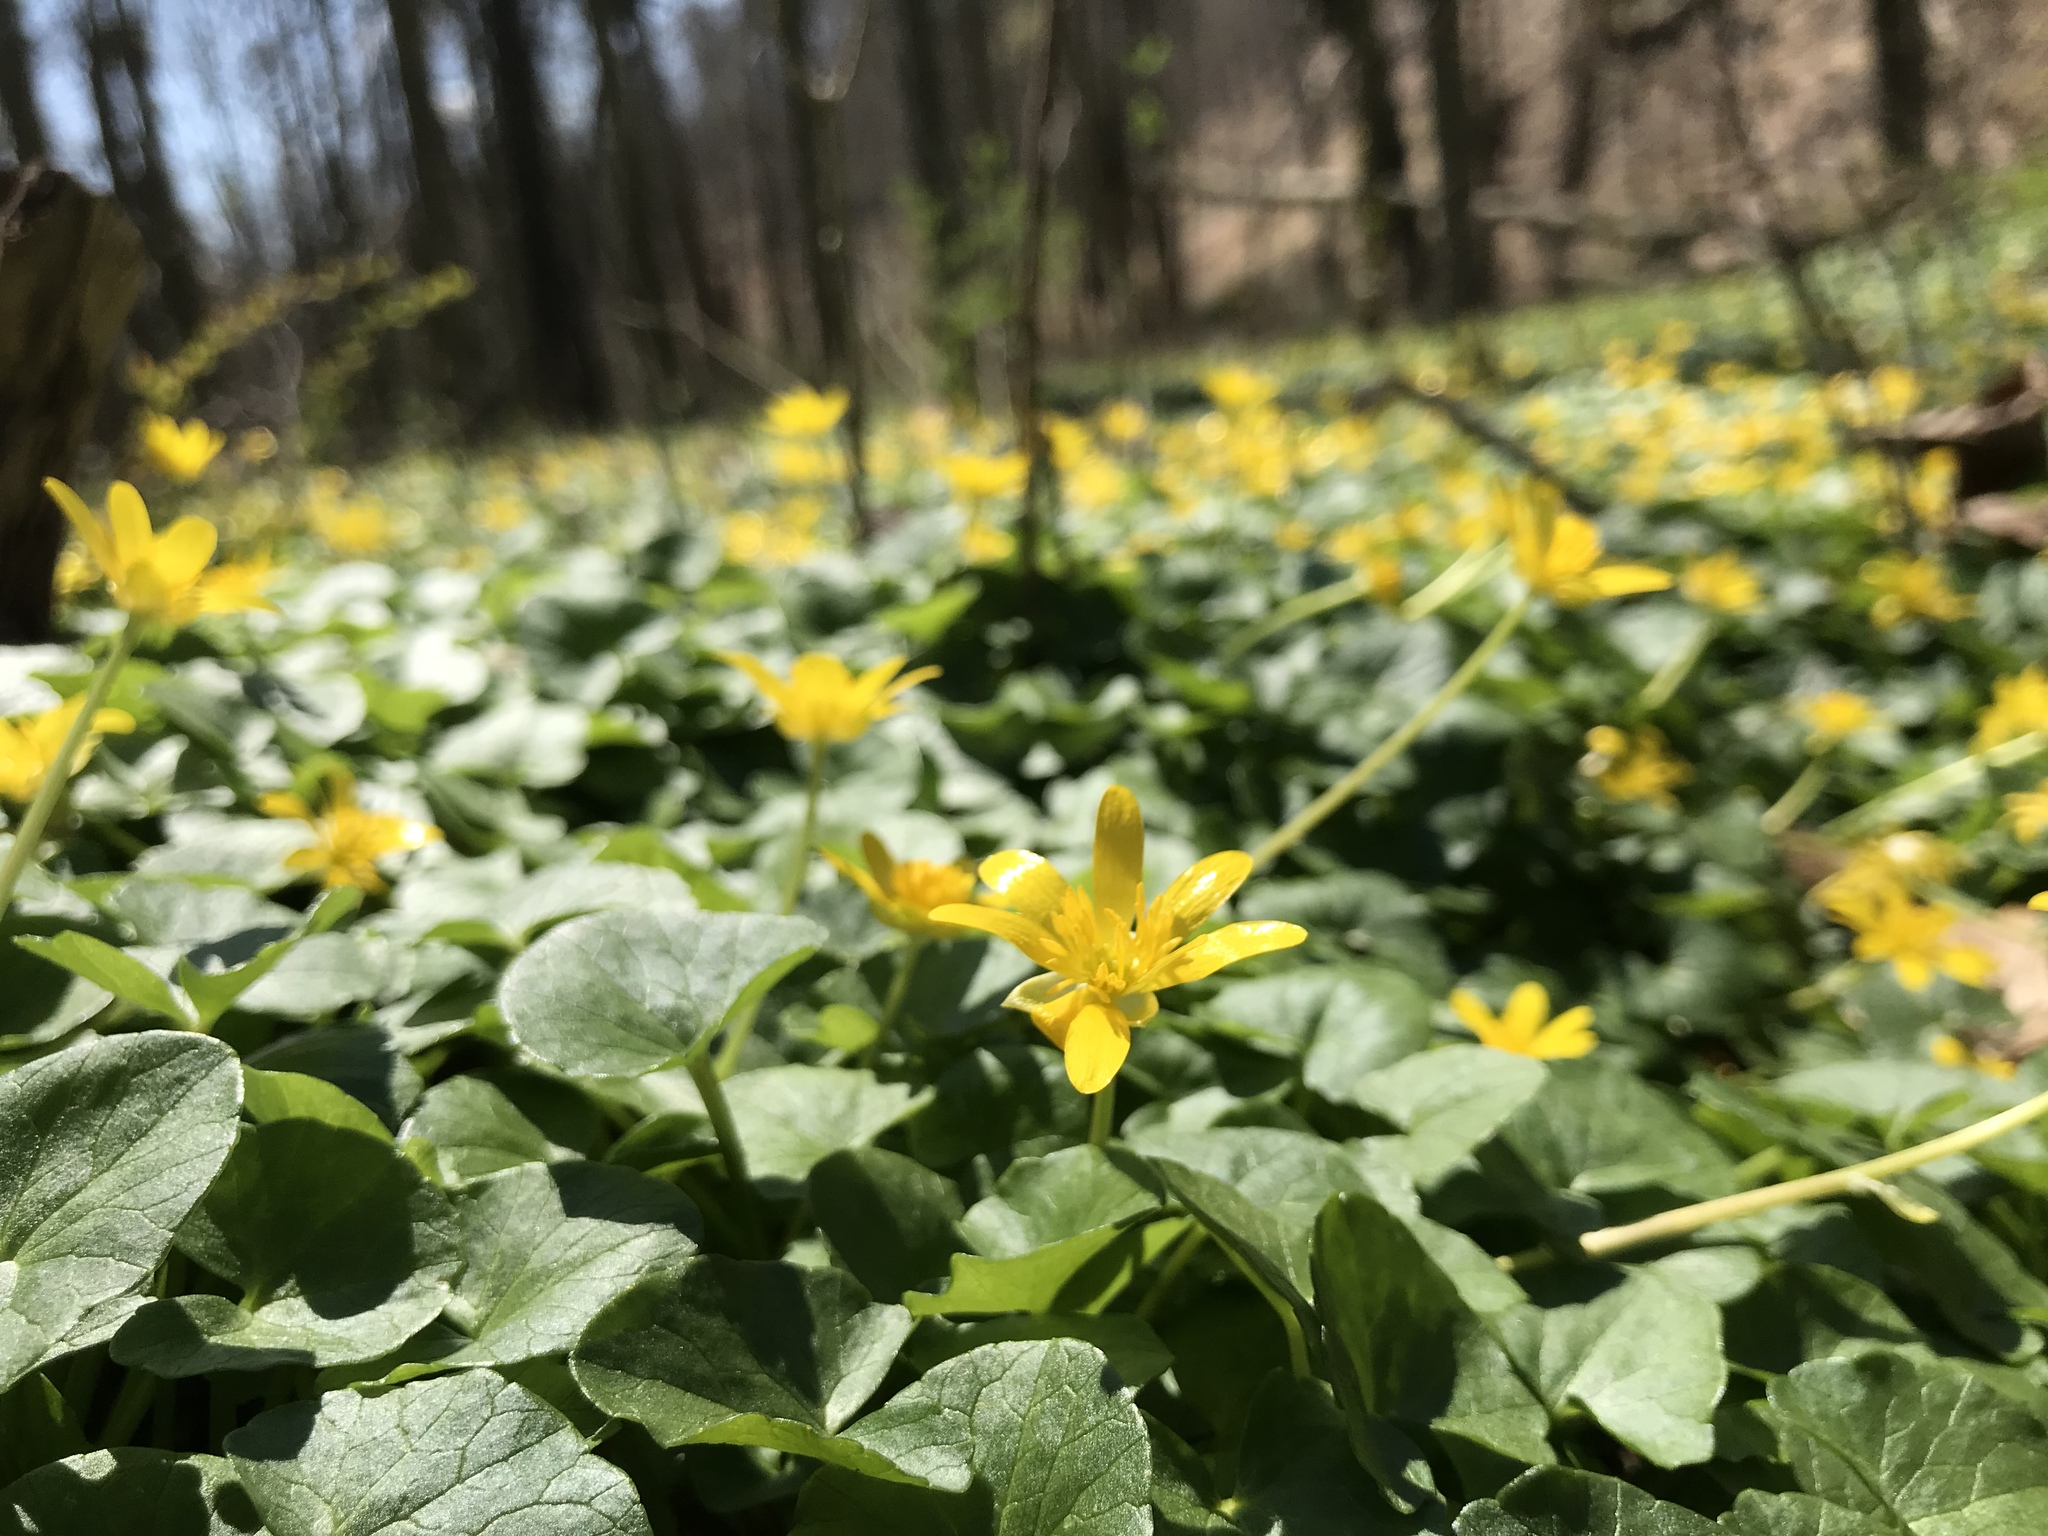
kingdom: Plantae
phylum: Tracheophyta
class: Magnoliopsida
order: Ranunculales
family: Ranunculaceae
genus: Ficaria
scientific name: Ficaria verna
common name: Lesser celandine
